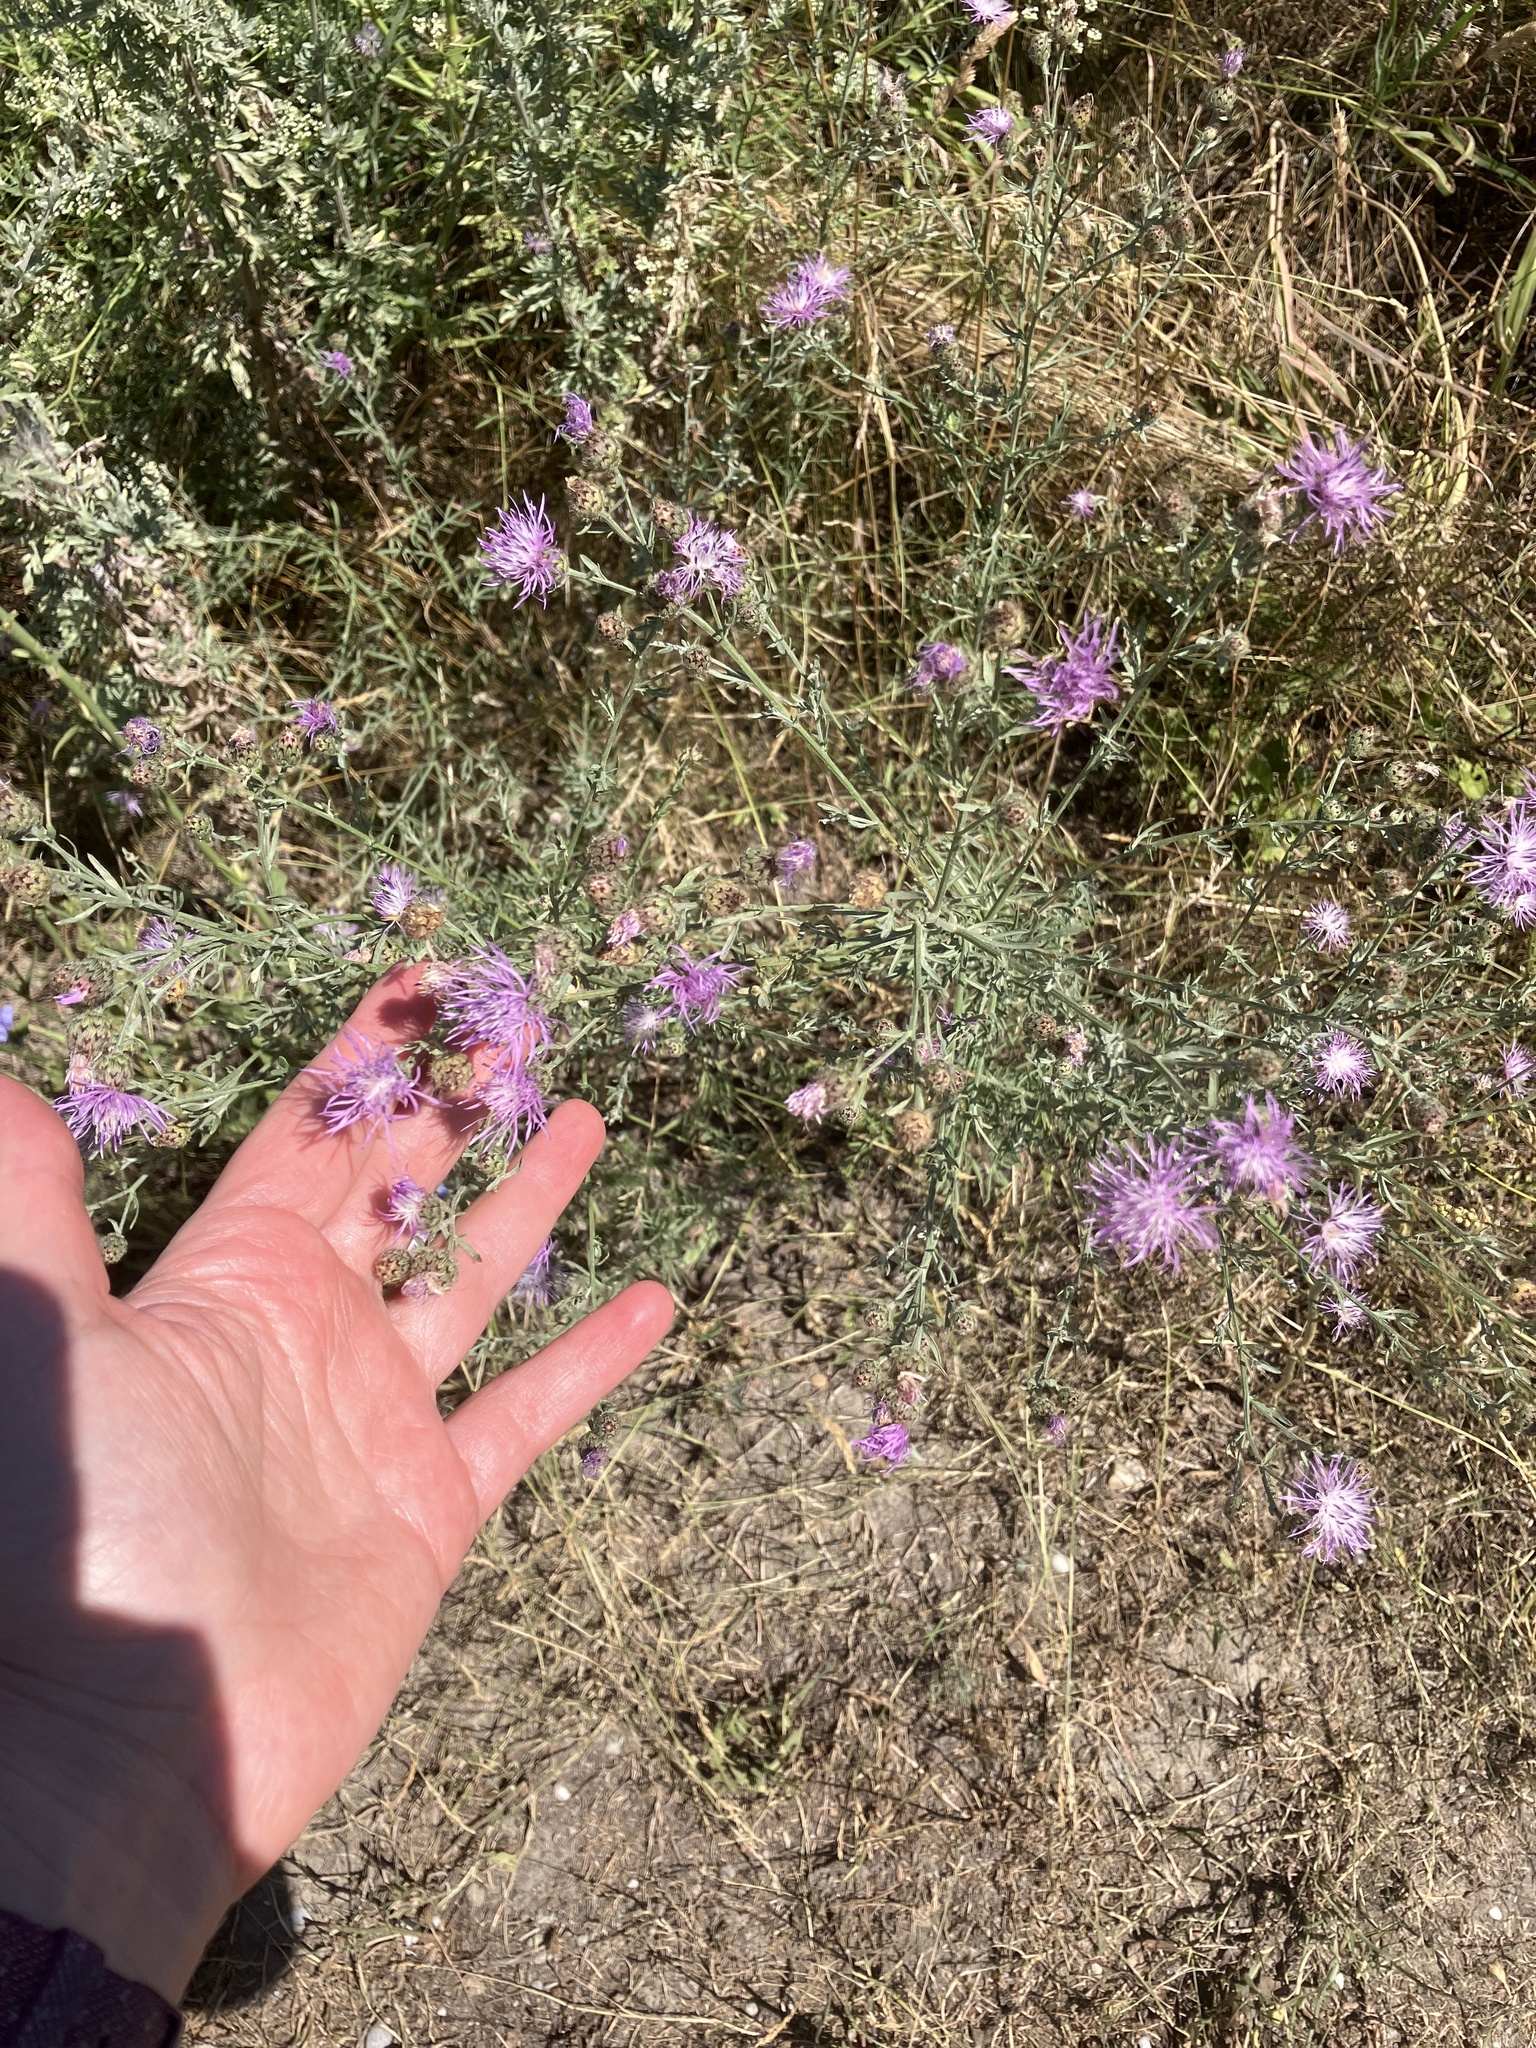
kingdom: Plantae
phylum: Tracheophyta
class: Magnoliopsida
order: Asterales
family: Asteraceae
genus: Centaurea
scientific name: Centaurea stoebe
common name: Spotted knapweed
